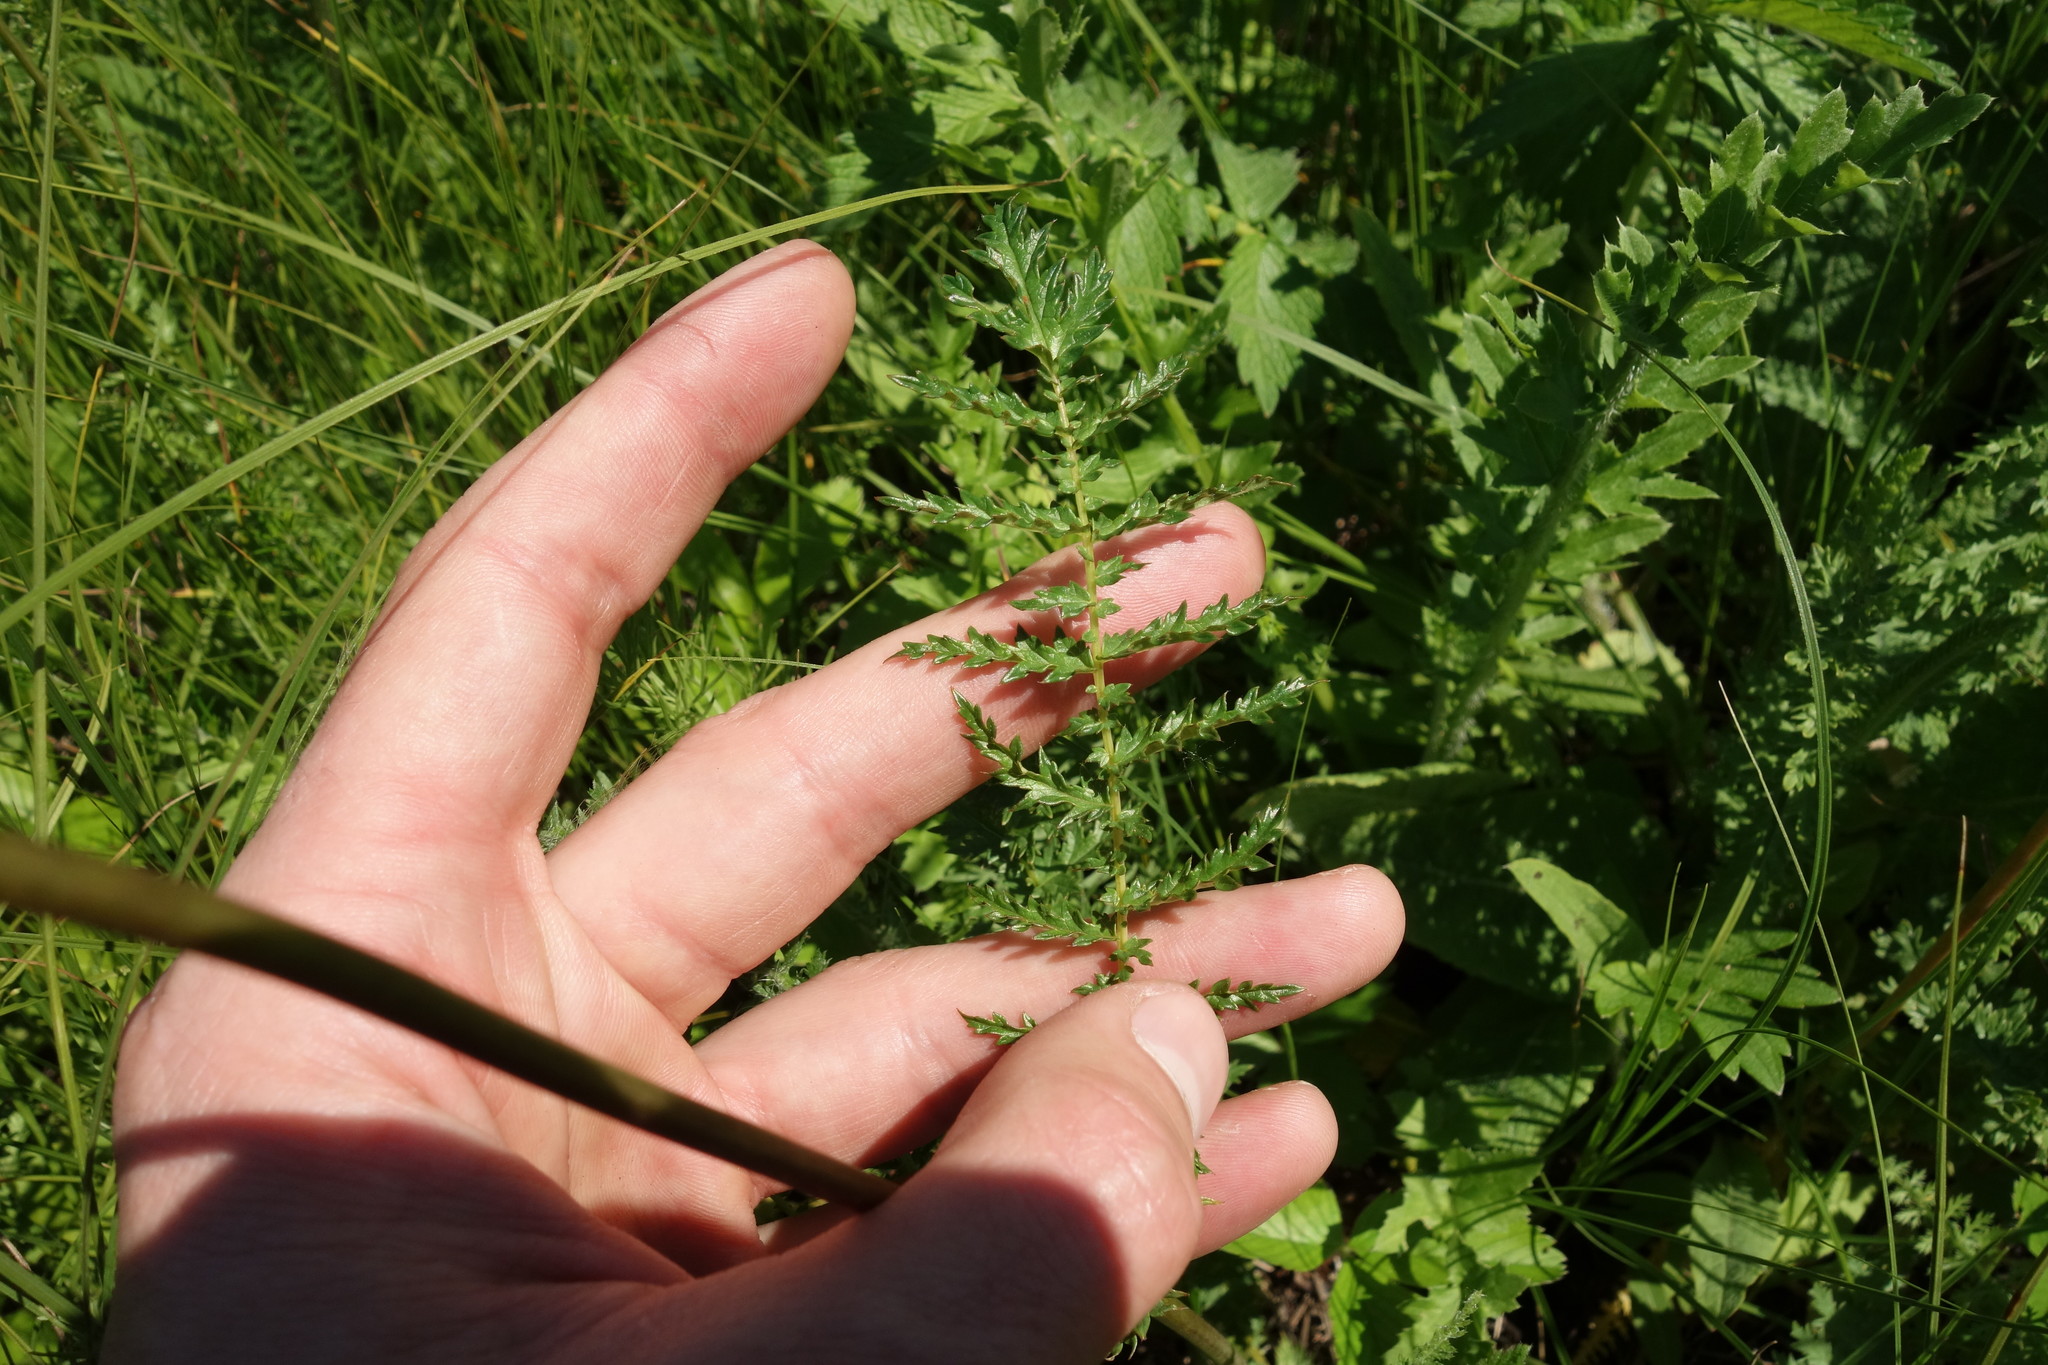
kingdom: Plantae
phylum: Tracheophyta
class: Magnoliopsida
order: Rosales
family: Rosaceae
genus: Filipendula
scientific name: Filipendula vulgaris
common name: Dropwort
